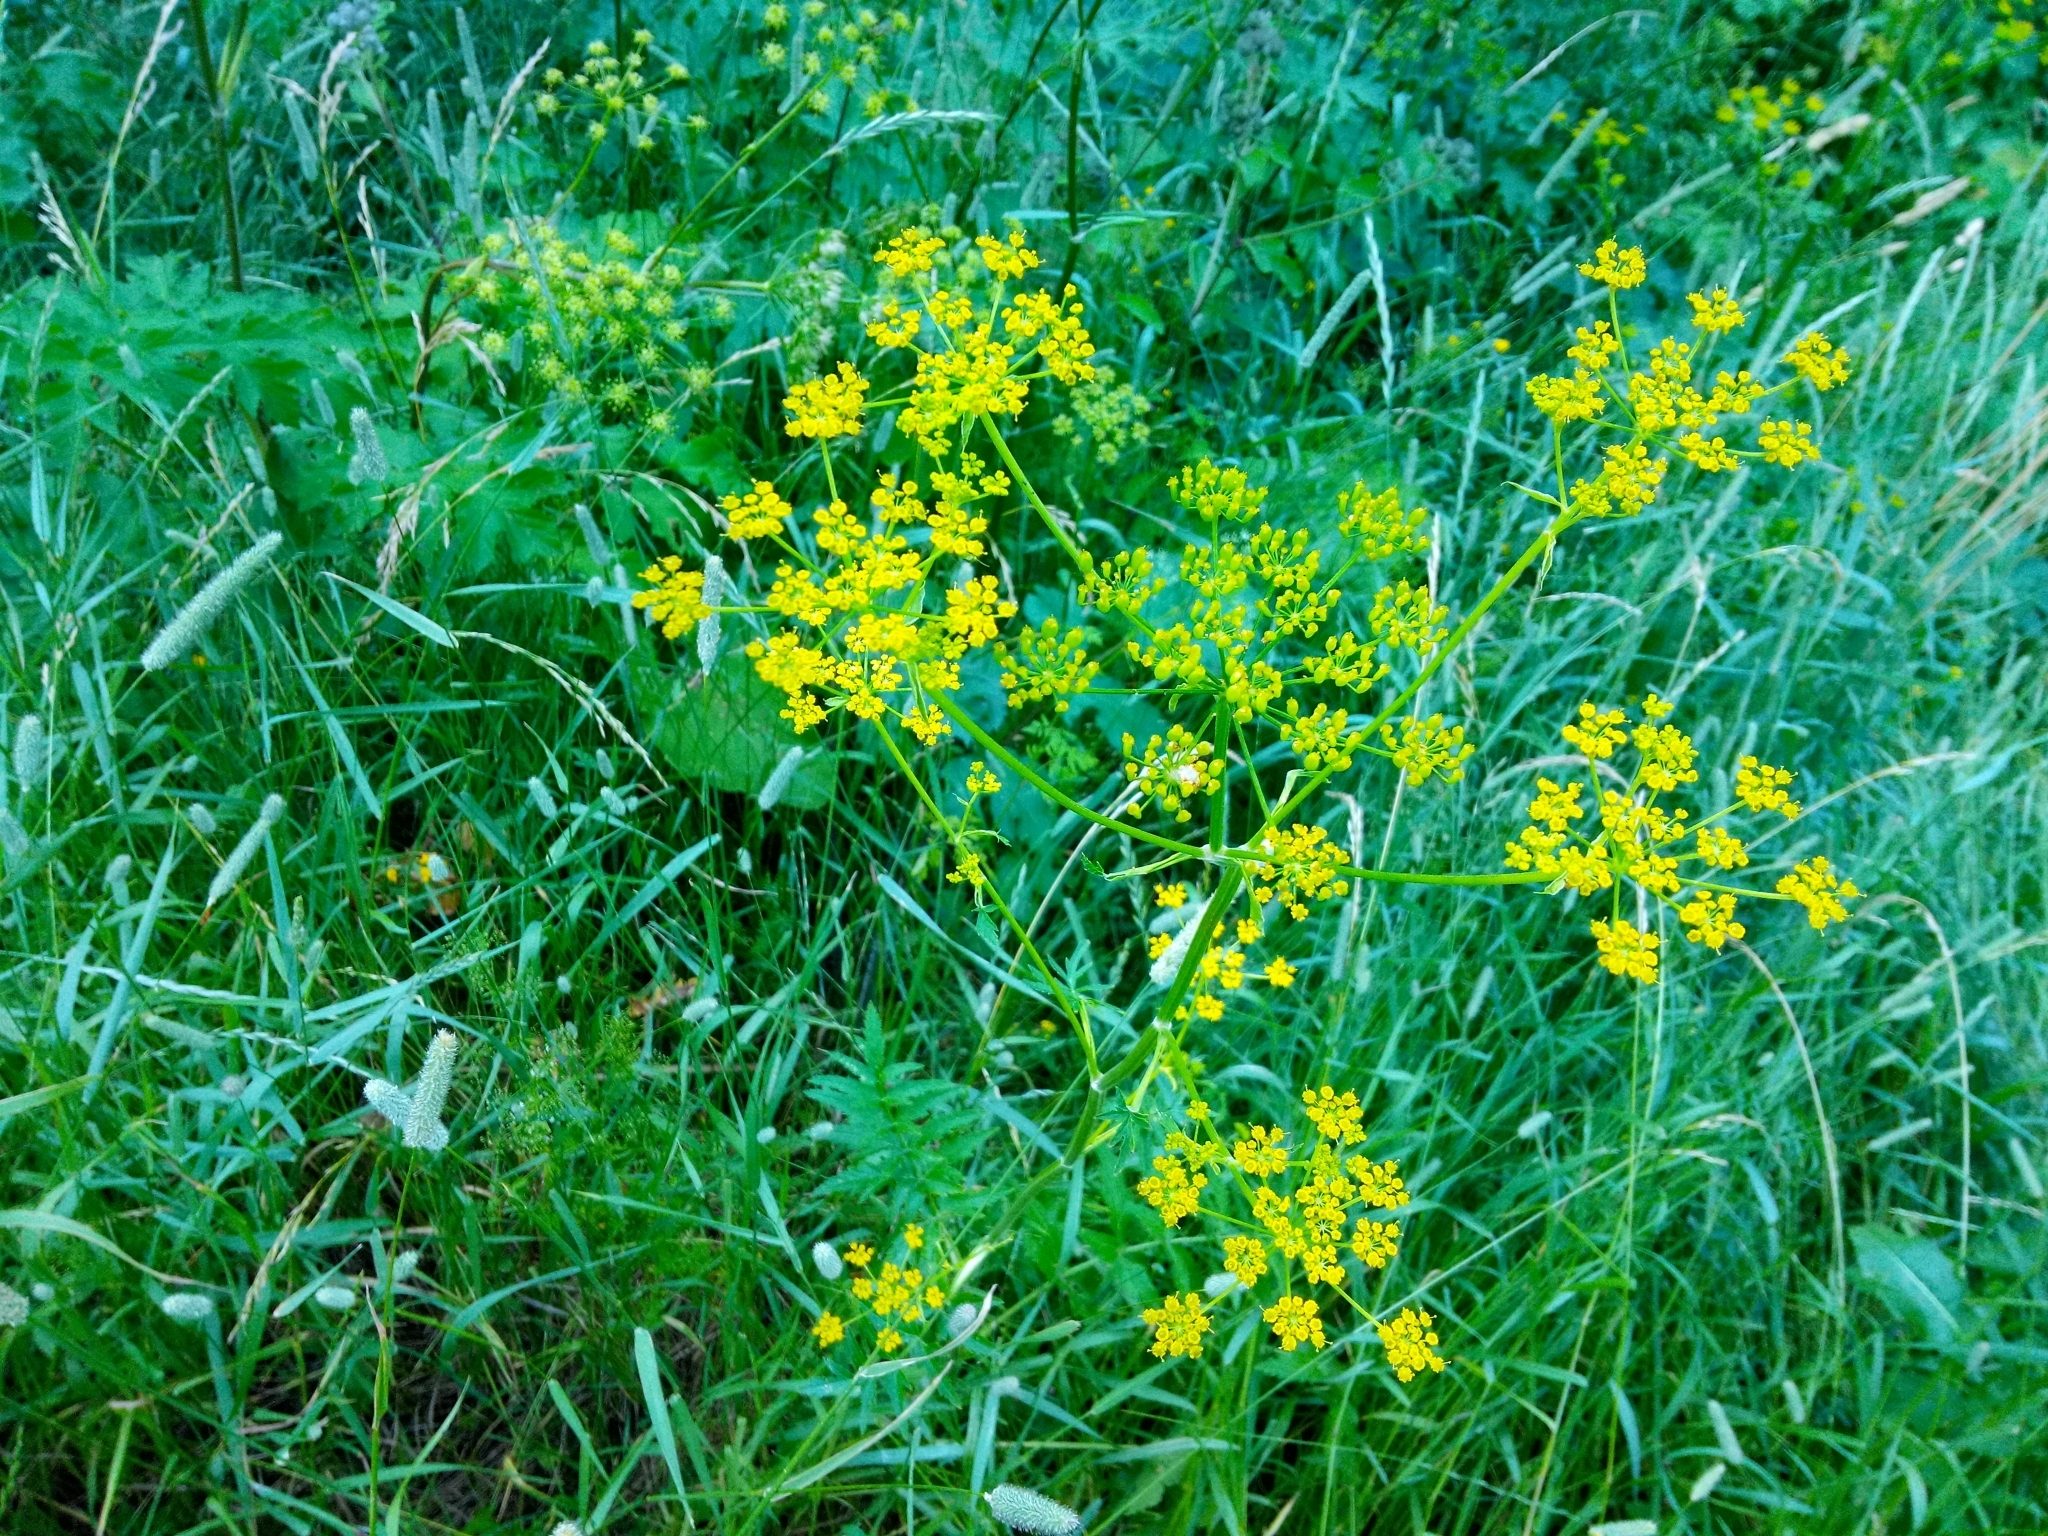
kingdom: Plantae
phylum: Tracheophyta
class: Magnoliopsida
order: Apiales
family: Apiaceae
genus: Pastinaca
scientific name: Pastinaca sativa
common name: Wild parsnip
